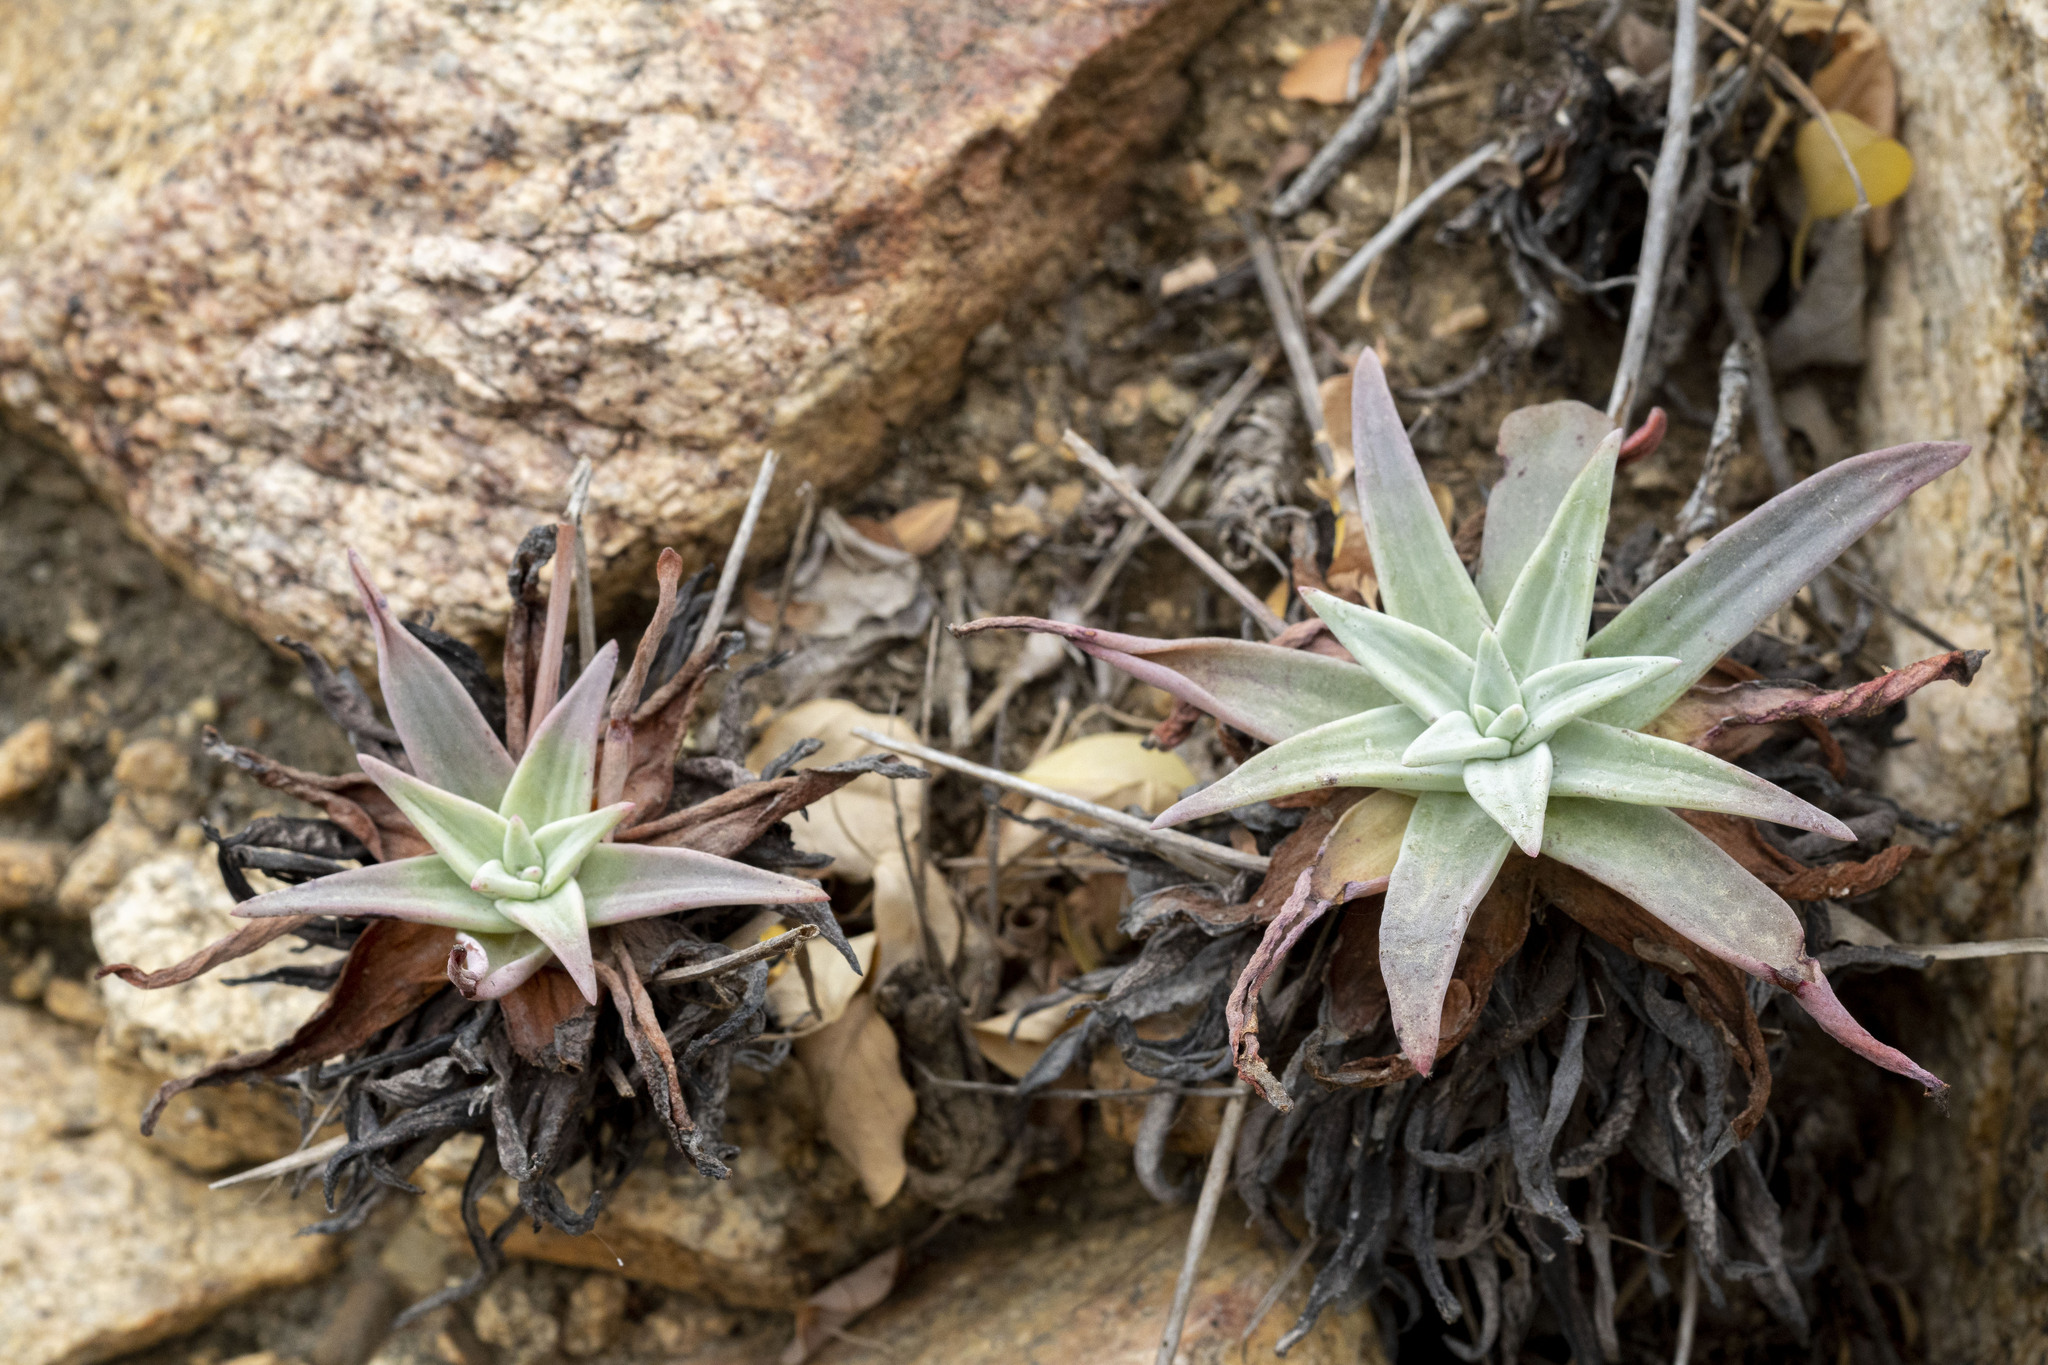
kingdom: Plantae
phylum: Tracheophyta
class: Magnoliopsida
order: Saxifragales
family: Crassulaceae
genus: Dudleya
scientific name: Dudleya nubigena
